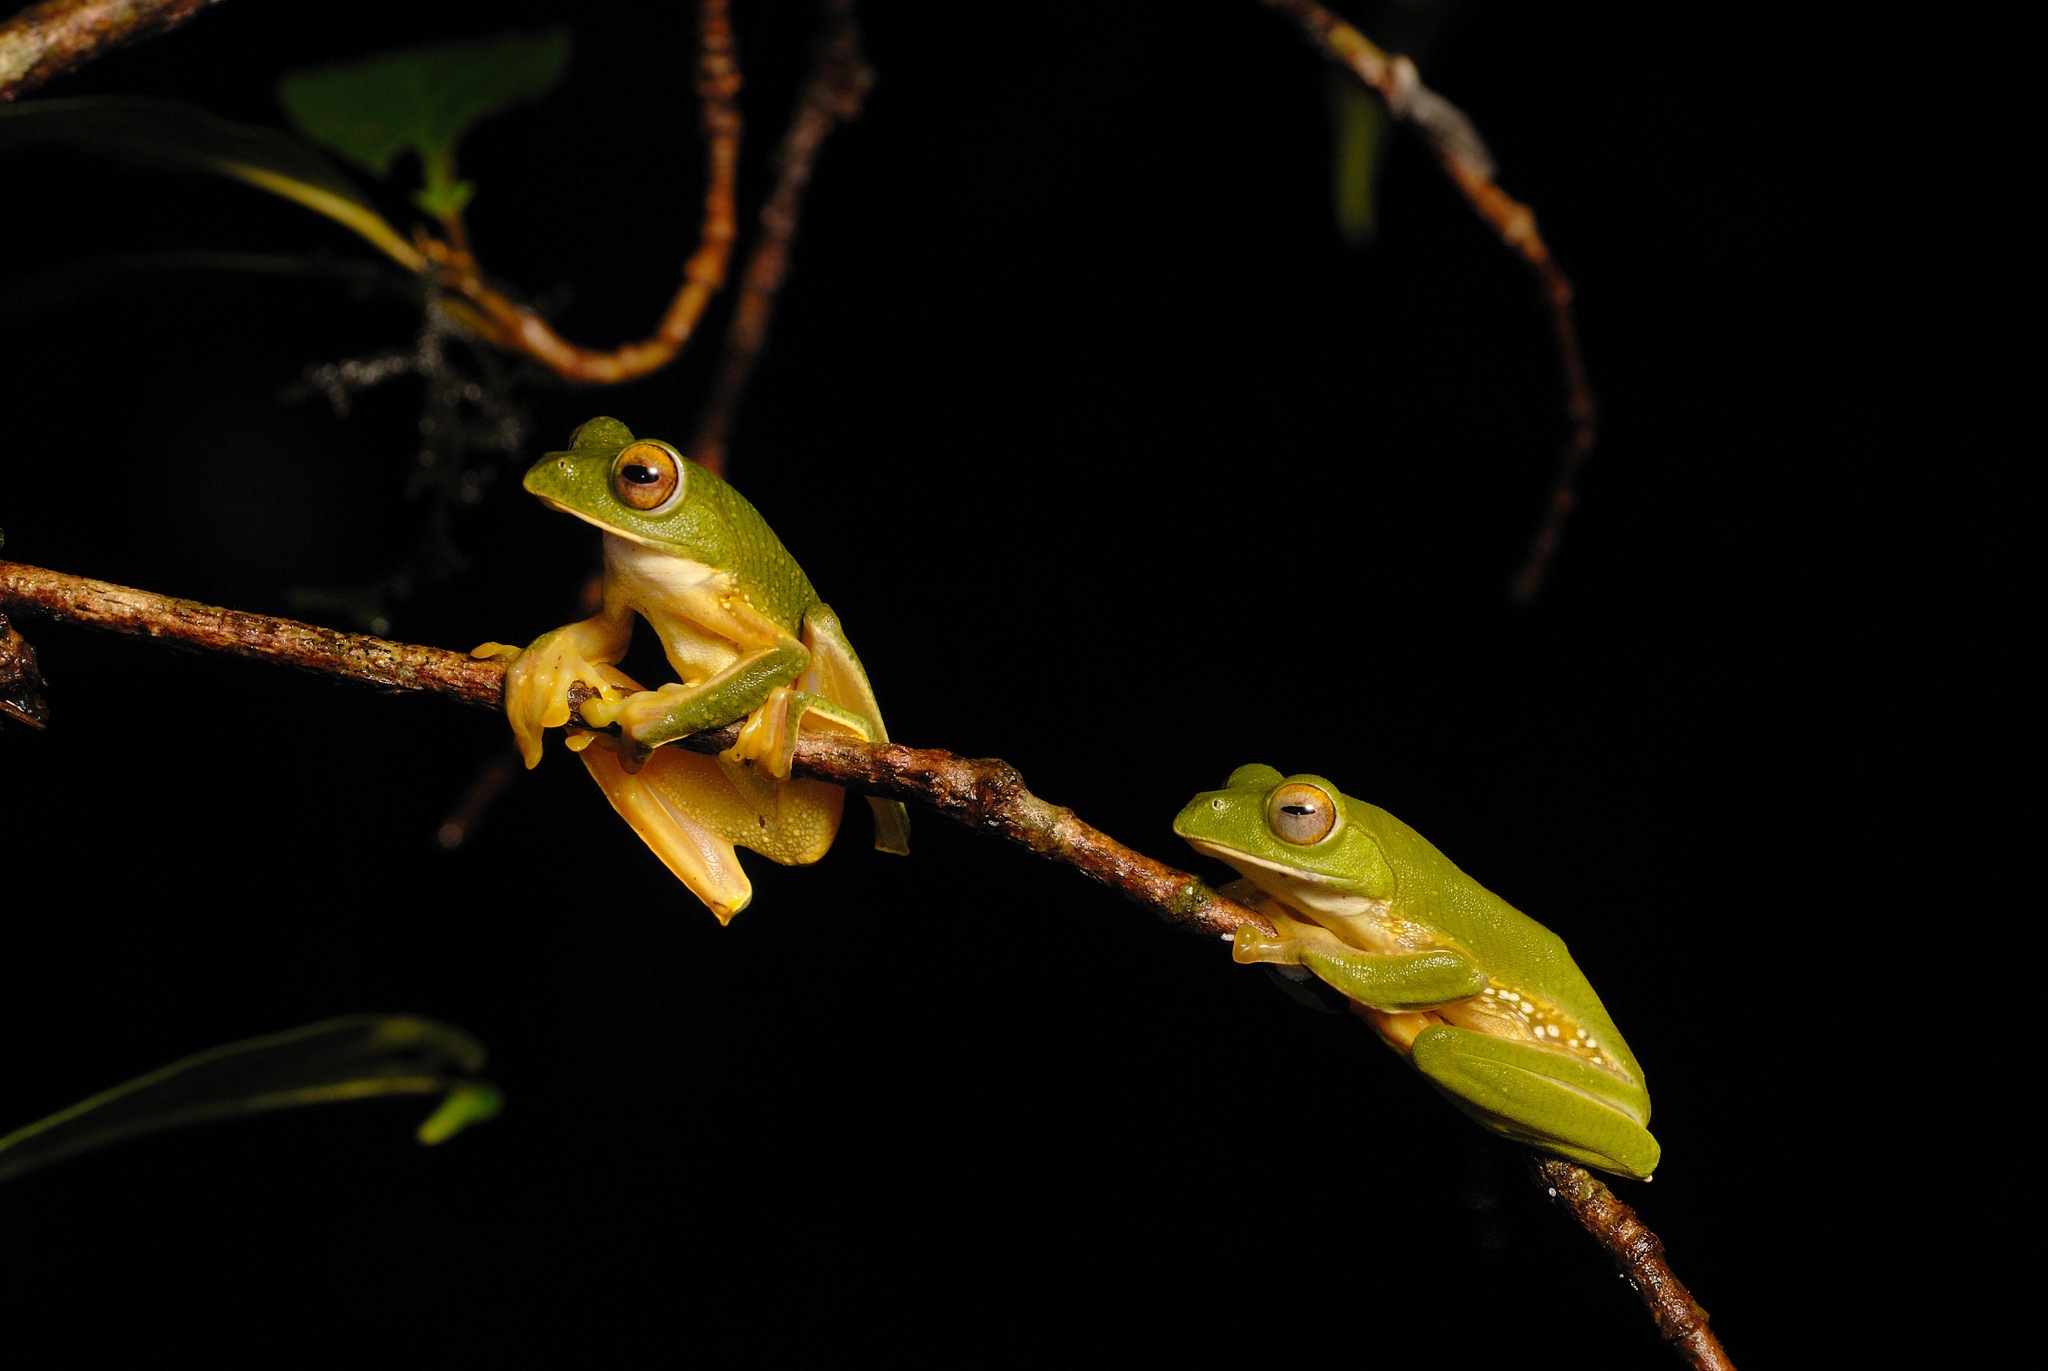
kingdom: Animalia
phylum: Chordata
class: Amphibia
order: Anura
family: Rhacophoridae
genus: Rhacophorus
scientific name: Rhacophorus pseudomalabaricus
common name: Anaimalai flying frog
